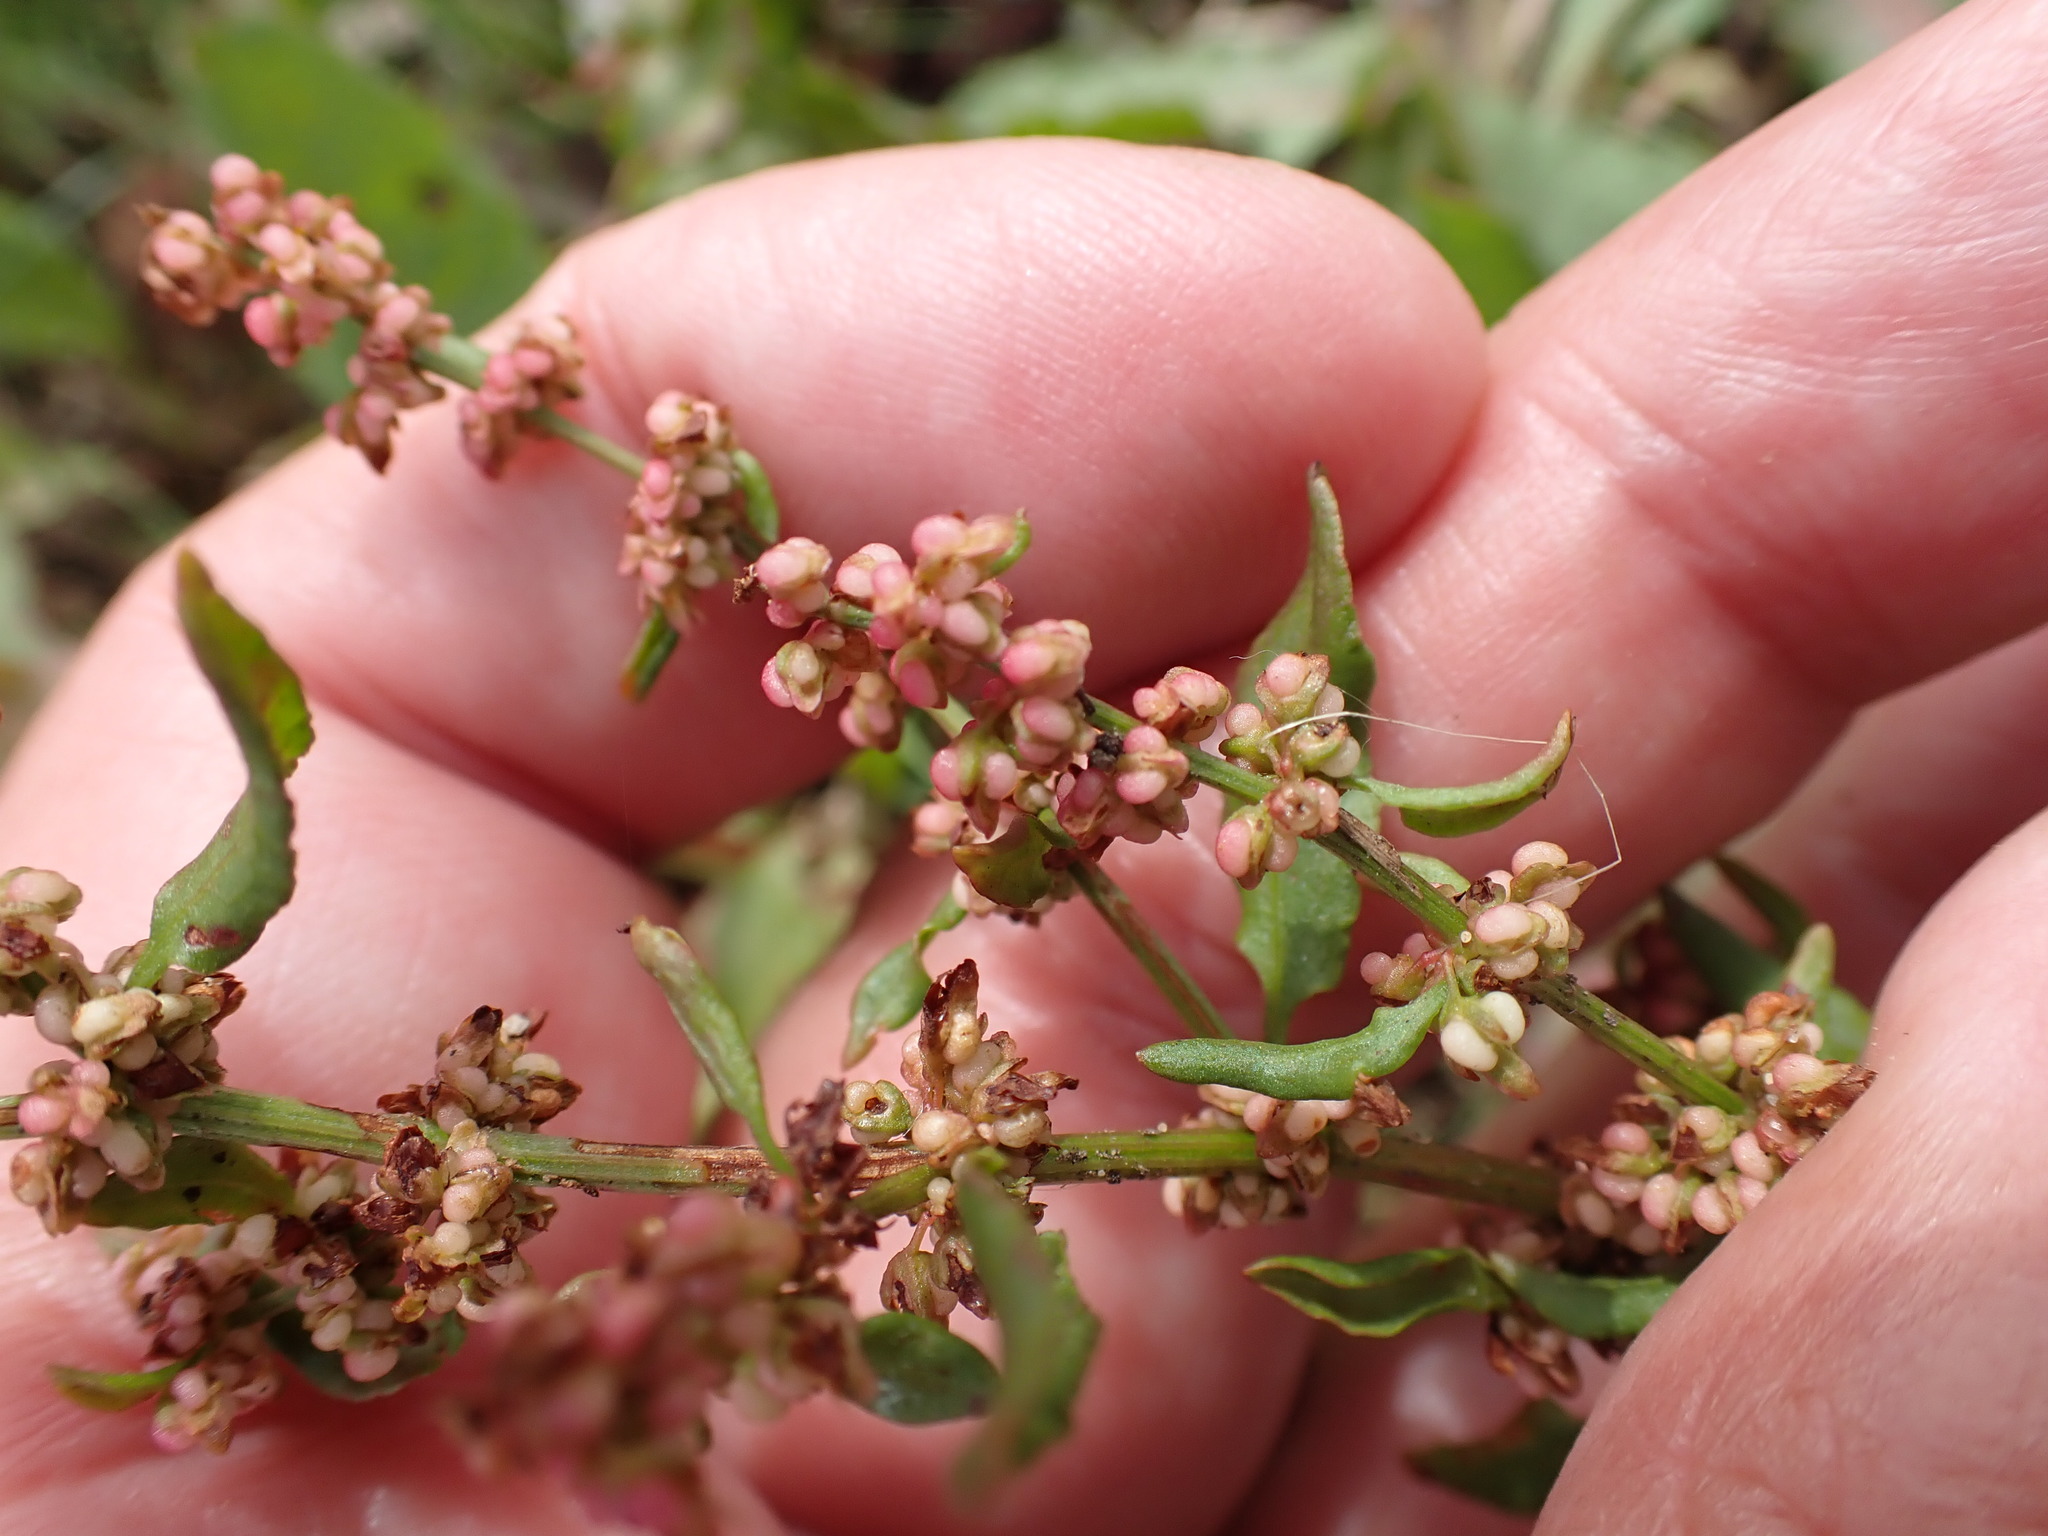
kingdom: Plantae
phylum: Tracheophyta
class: Magnoliopsida
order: Caryophyllales
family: Polygonaceae
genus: Rumex
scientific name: Rumex conglomeratus
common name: Clustered dock
